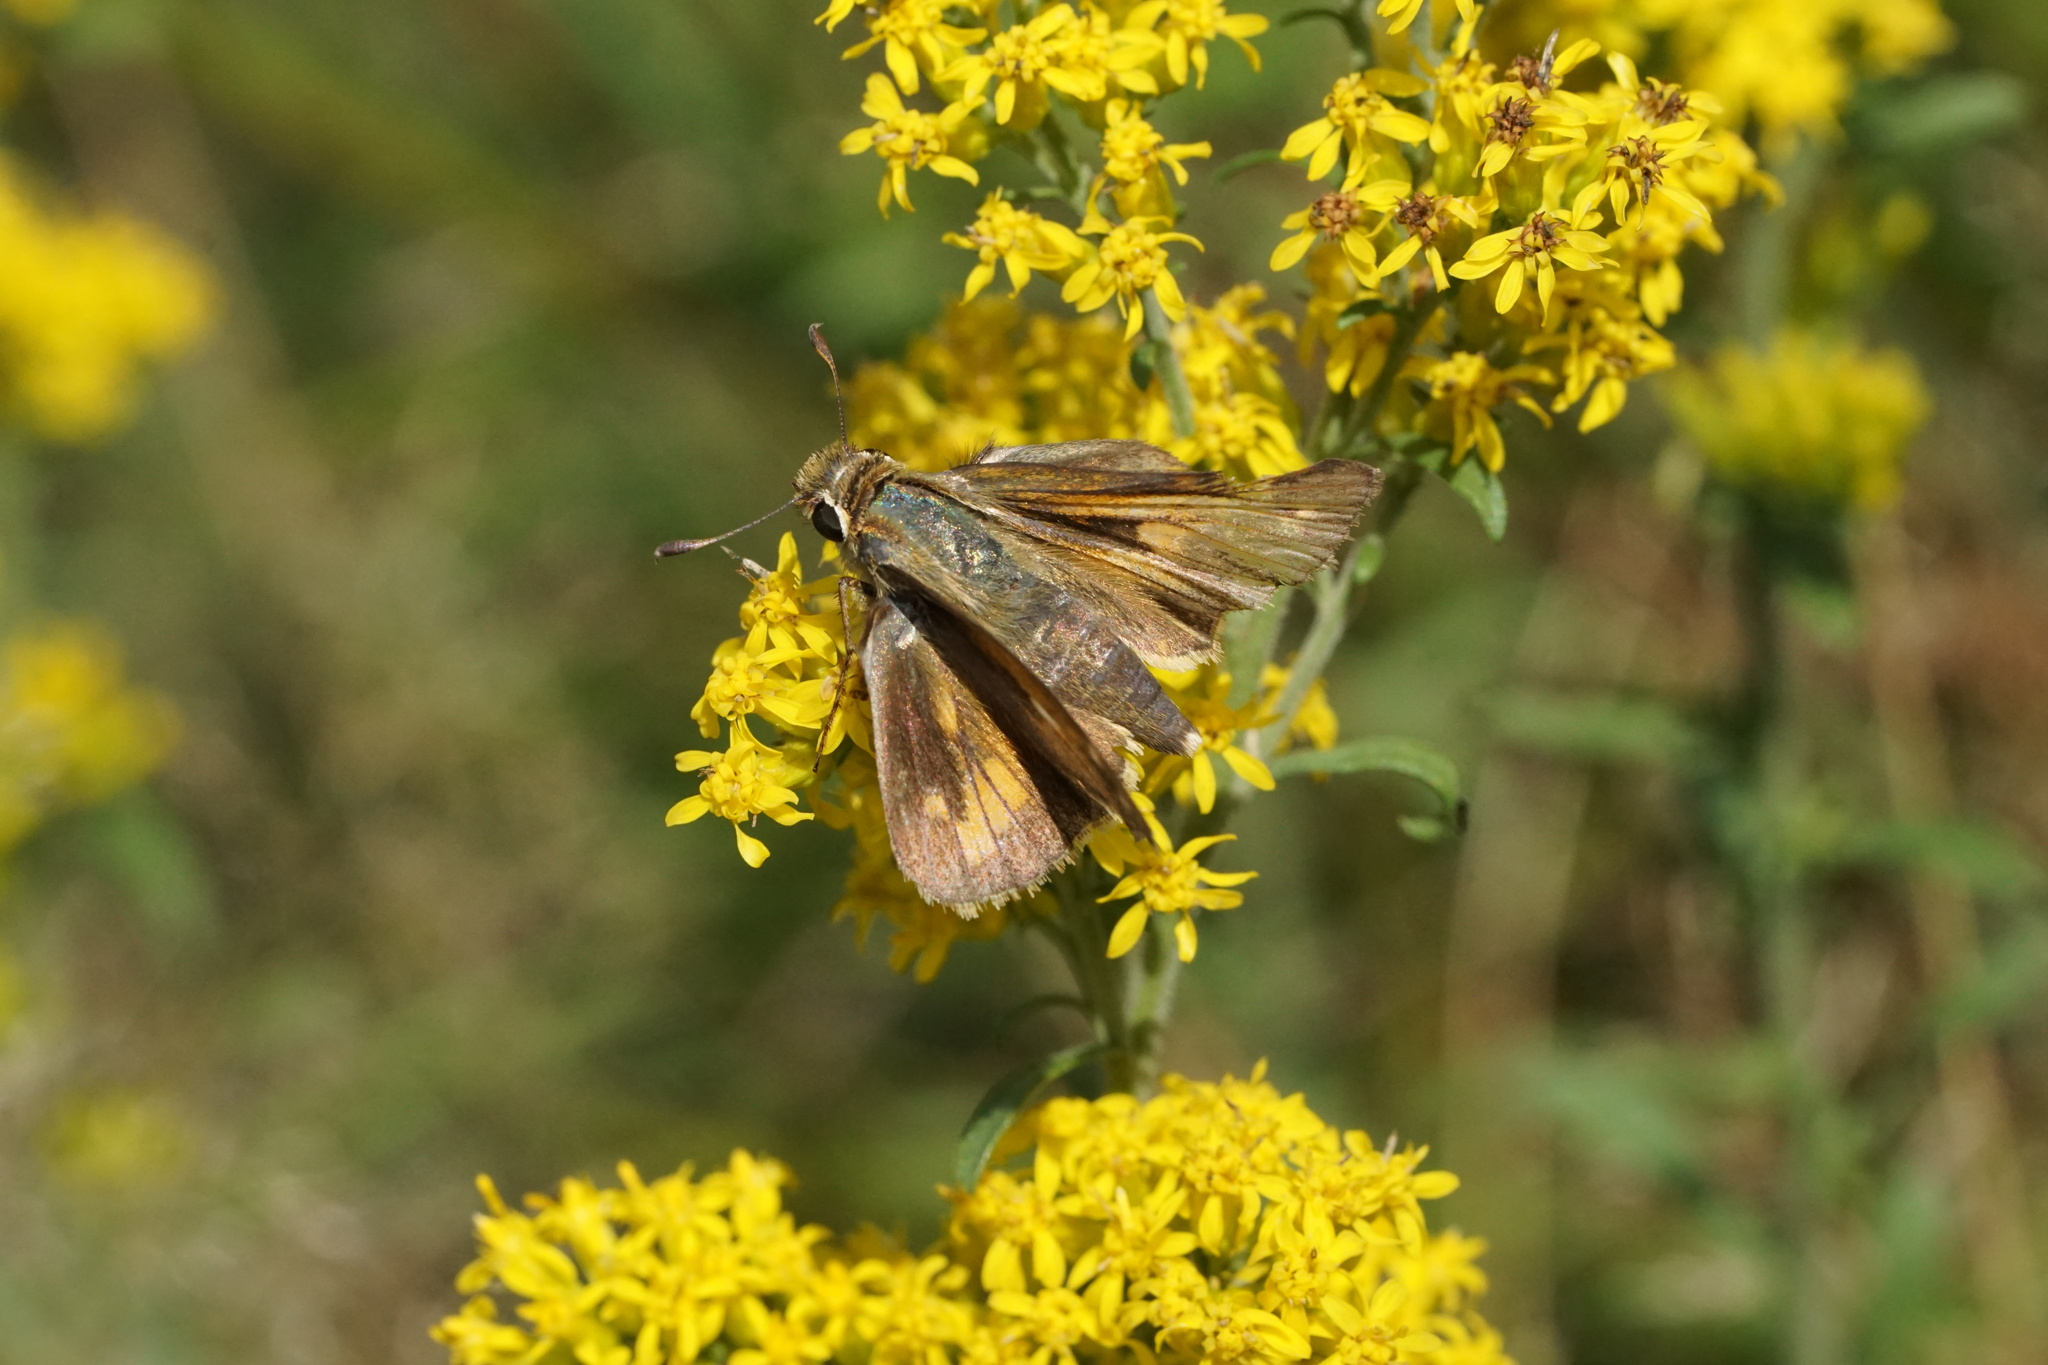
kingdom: Animalia
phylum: Arthropoda
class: Insecta
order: Lepidoptera
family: Hesperiidae
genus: Atalopedes
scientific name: Atalopedes
